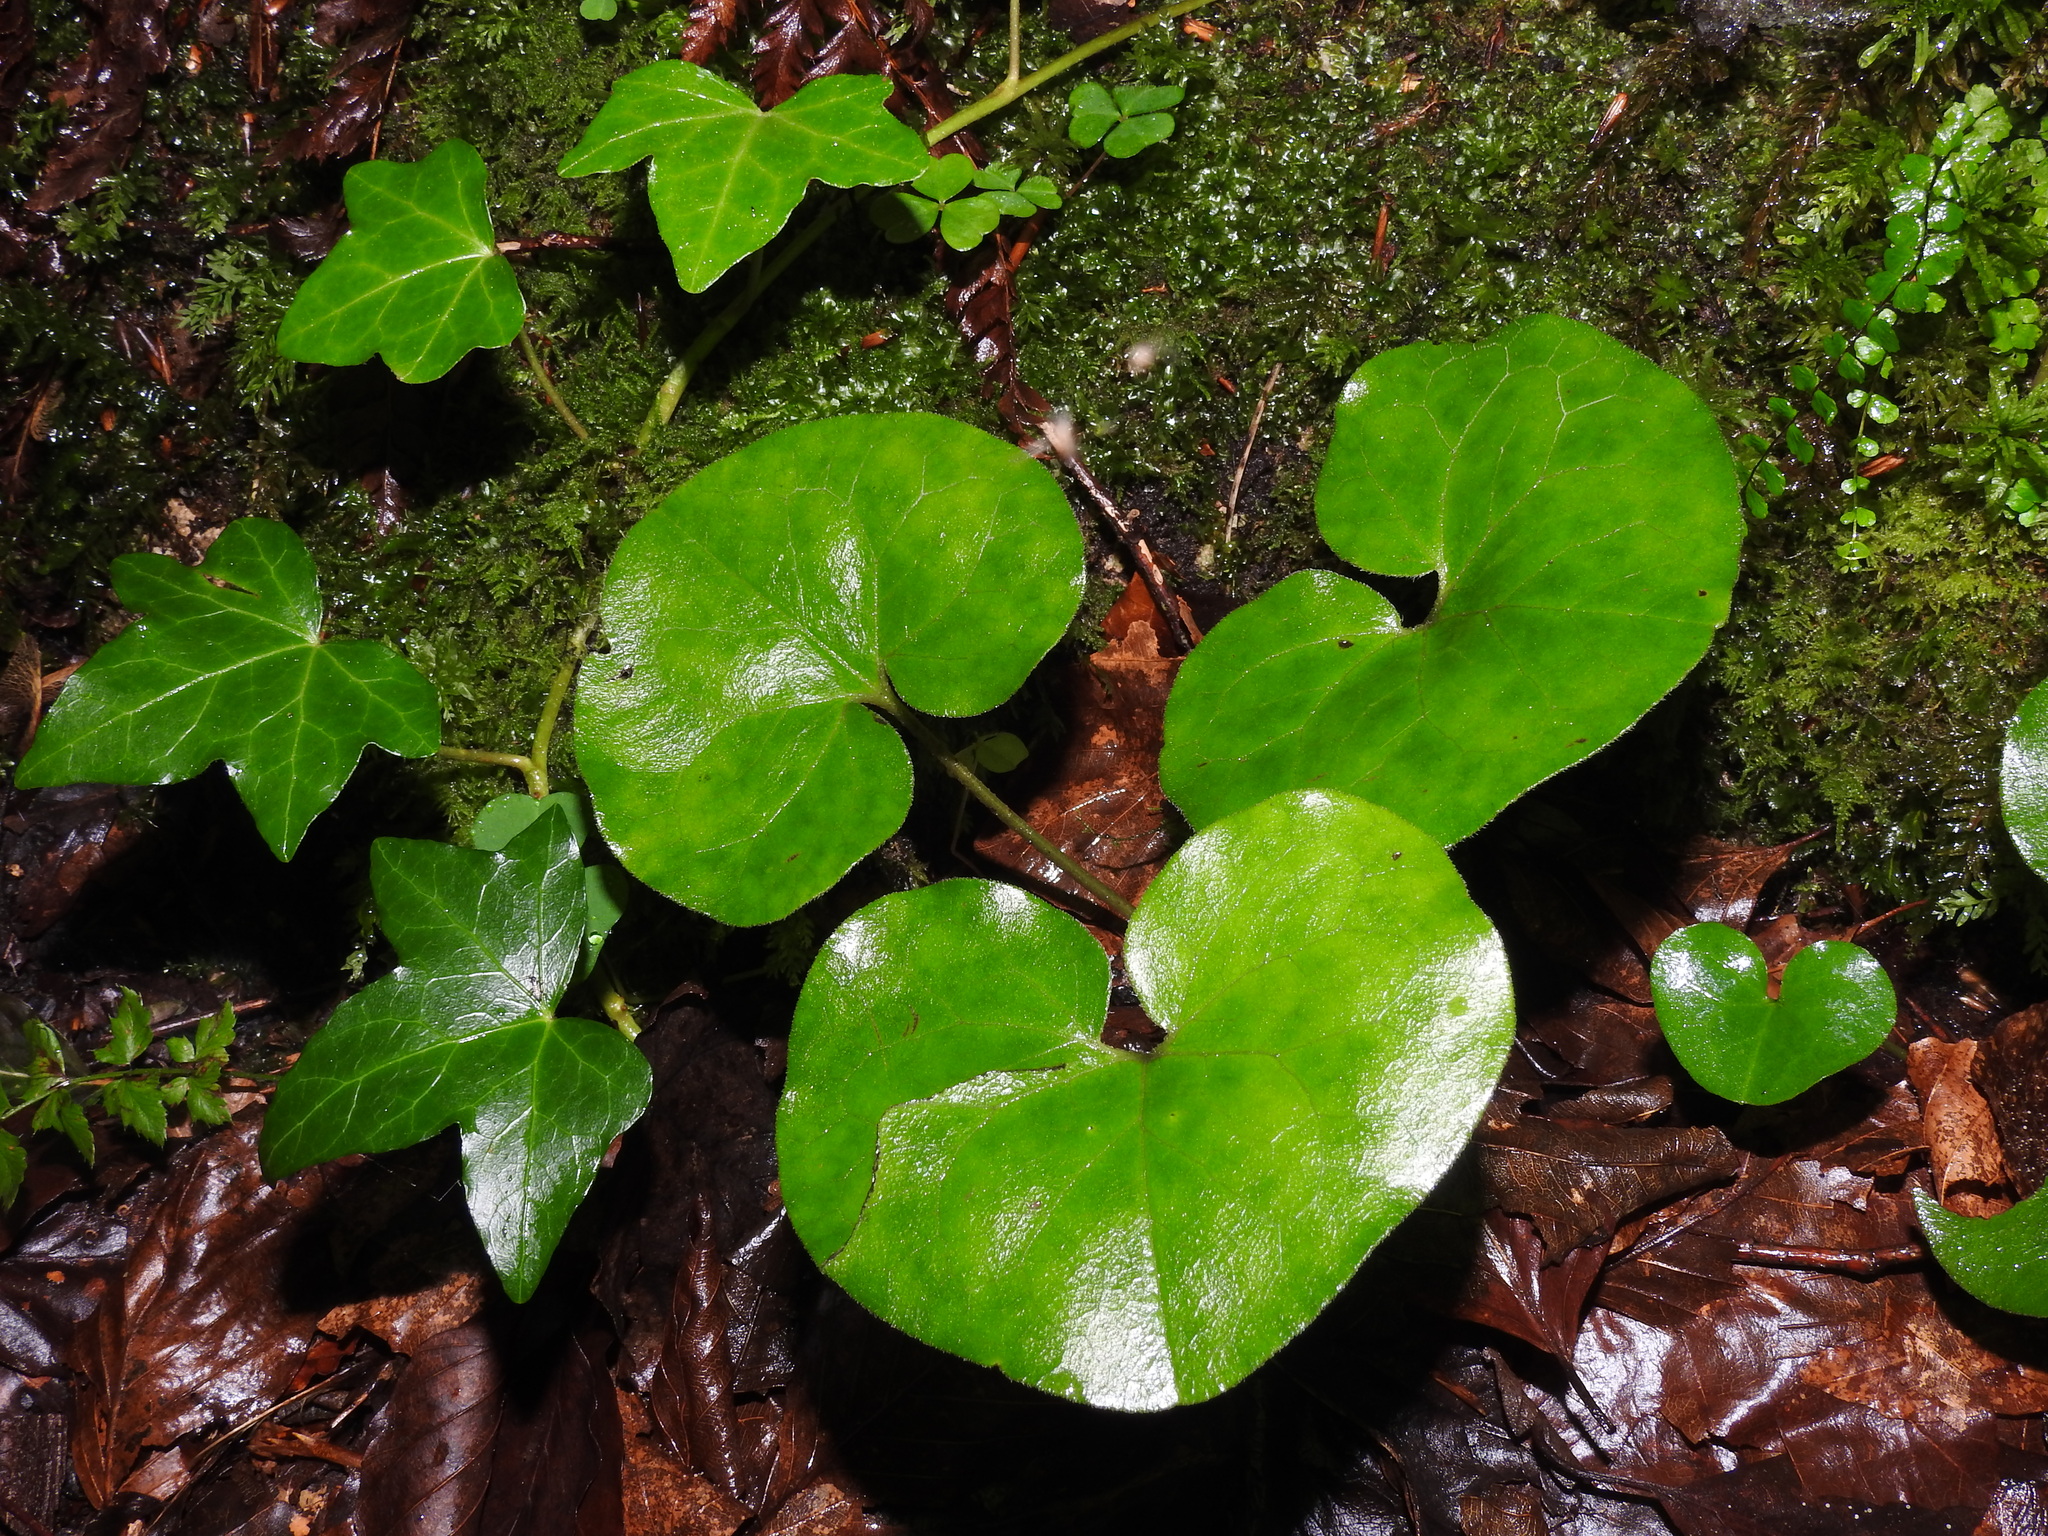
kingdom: Plantae
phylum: Tracheophyta
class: Magnoliopsida
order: Piperales
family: Aristolochiaceae
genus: Asarum
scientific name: Asarum europaeum
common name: Asarabacca
